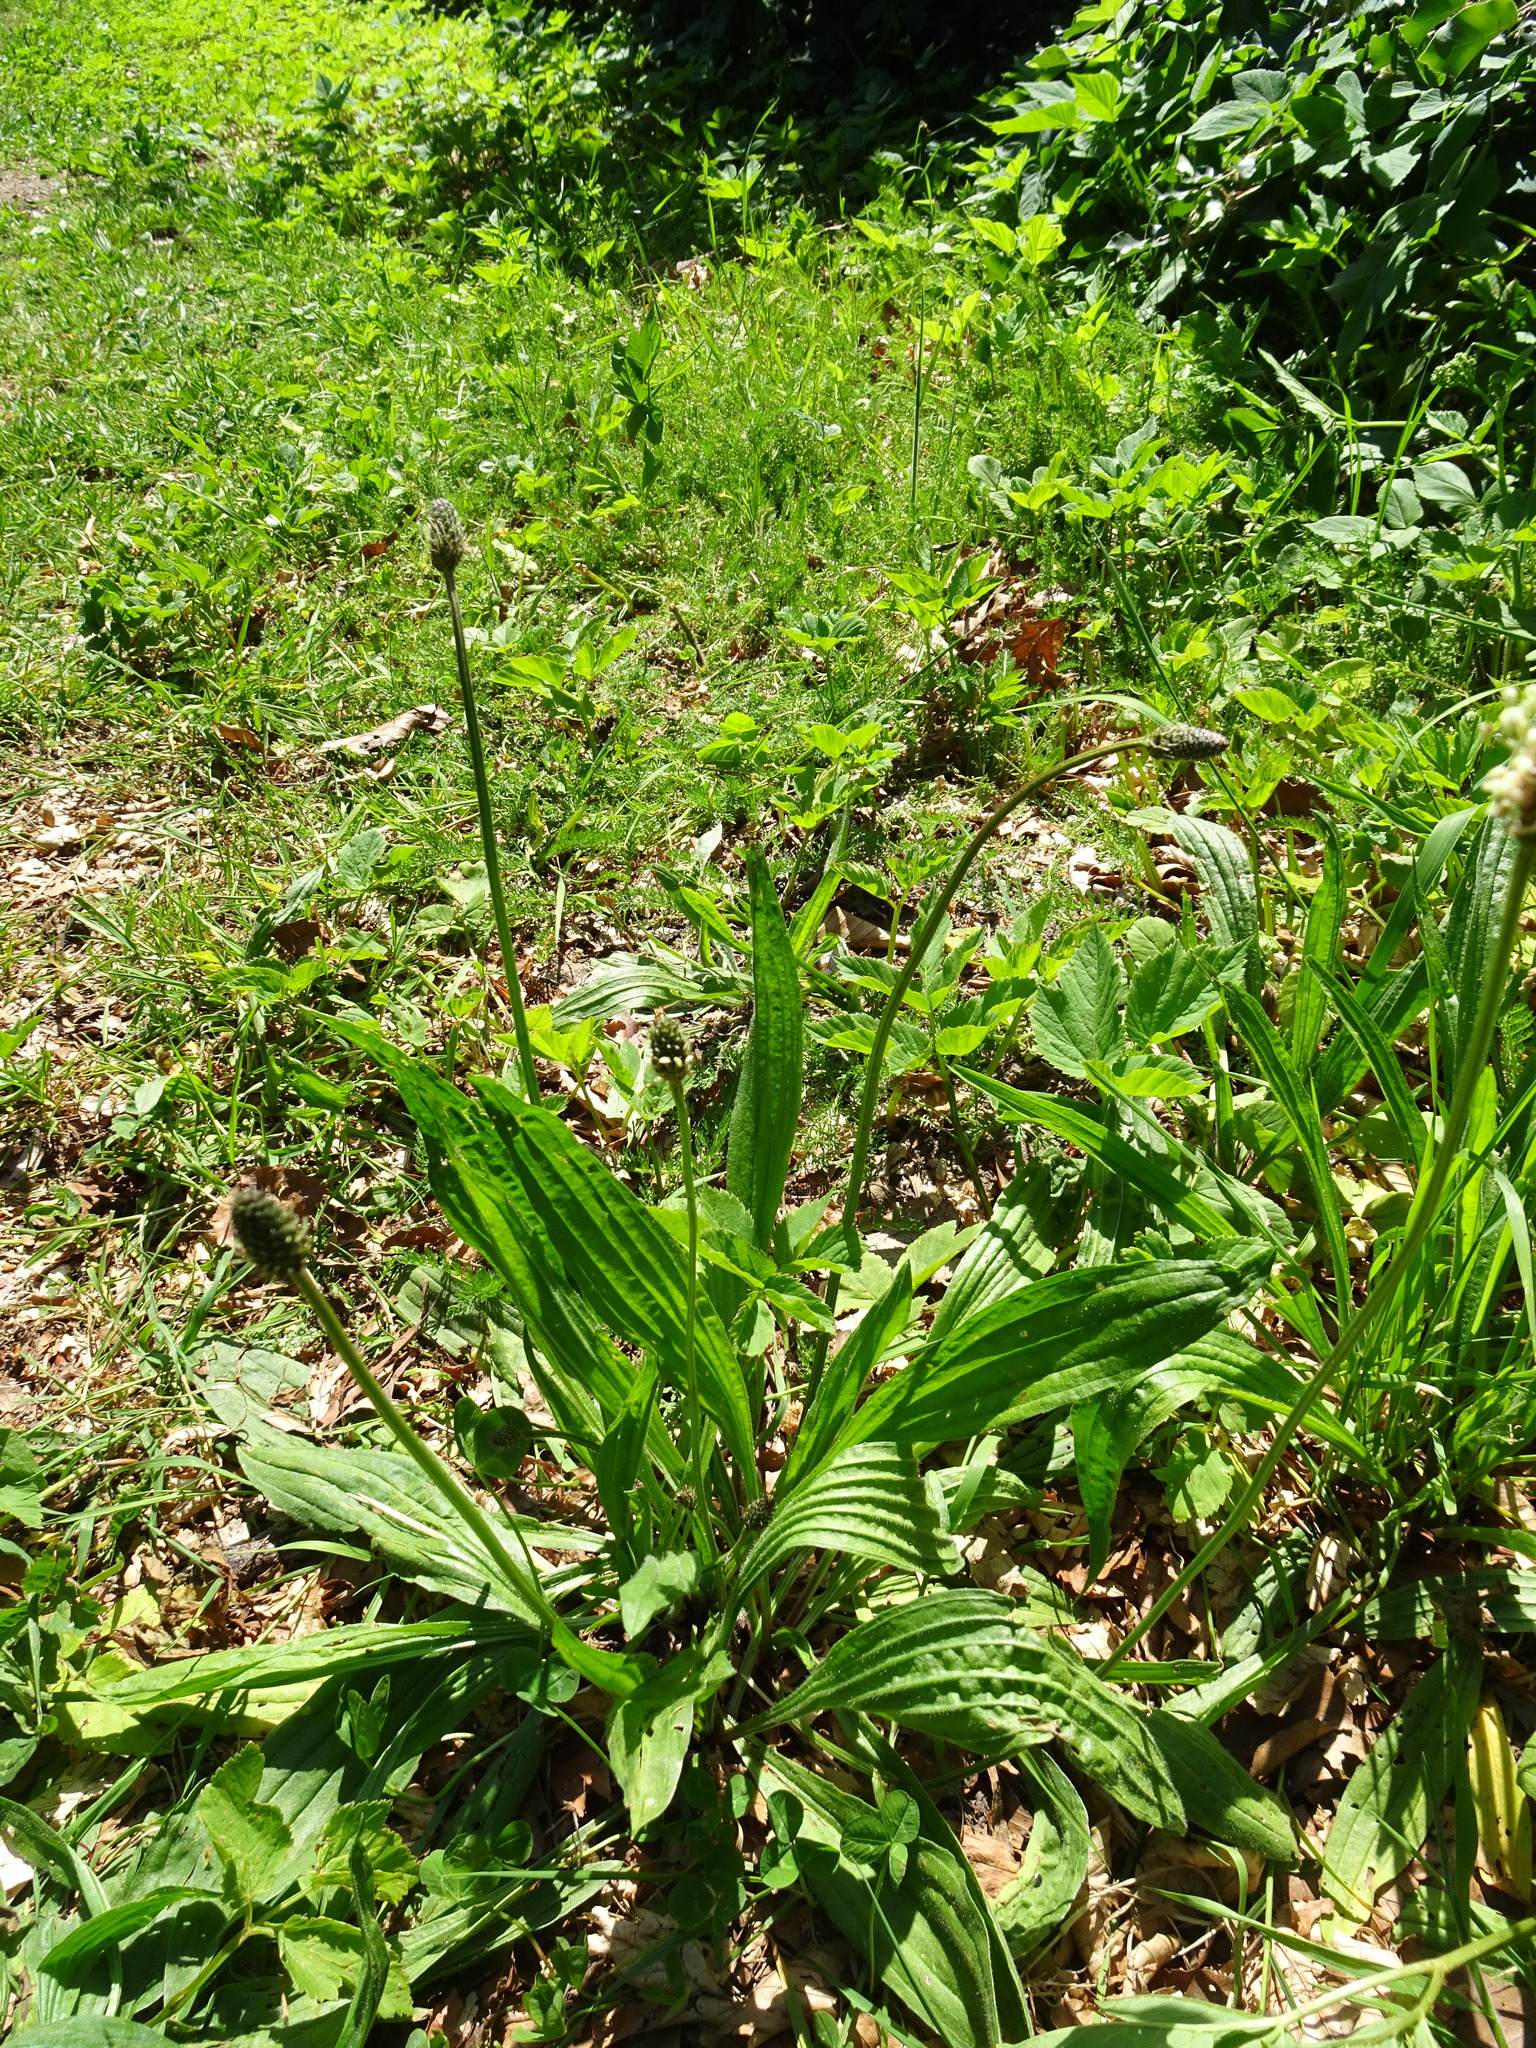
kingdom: Plantae
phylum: Tracheophyta
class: Magnoliopsida
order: Lamiales
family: Plantaginaceae
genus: Plantago
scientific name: Plantago lanceolata
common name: Ribwort plantain
